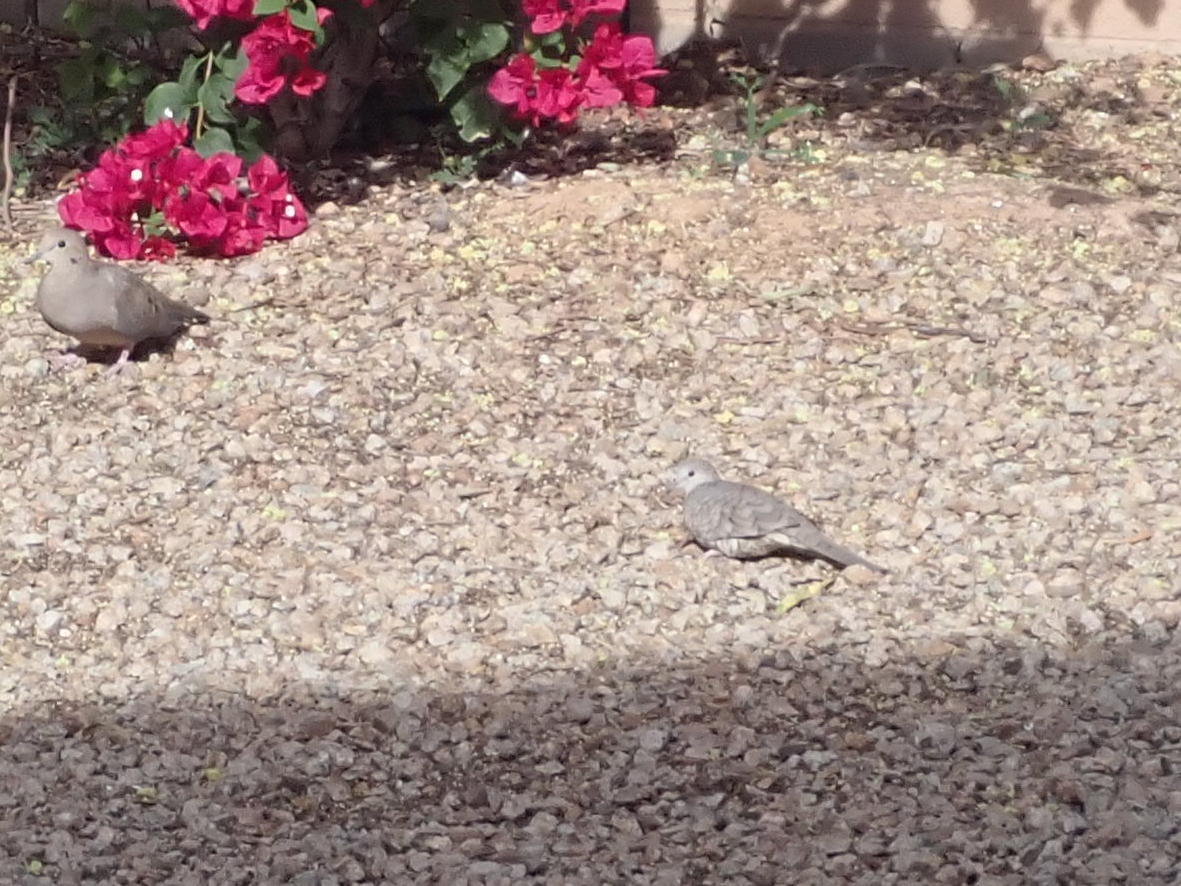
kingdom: Animalia
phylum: Chordata
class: Aves
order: Columbiformes
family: Columbidae
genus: Columbina
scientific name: Columbina inca
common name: Inca dove
